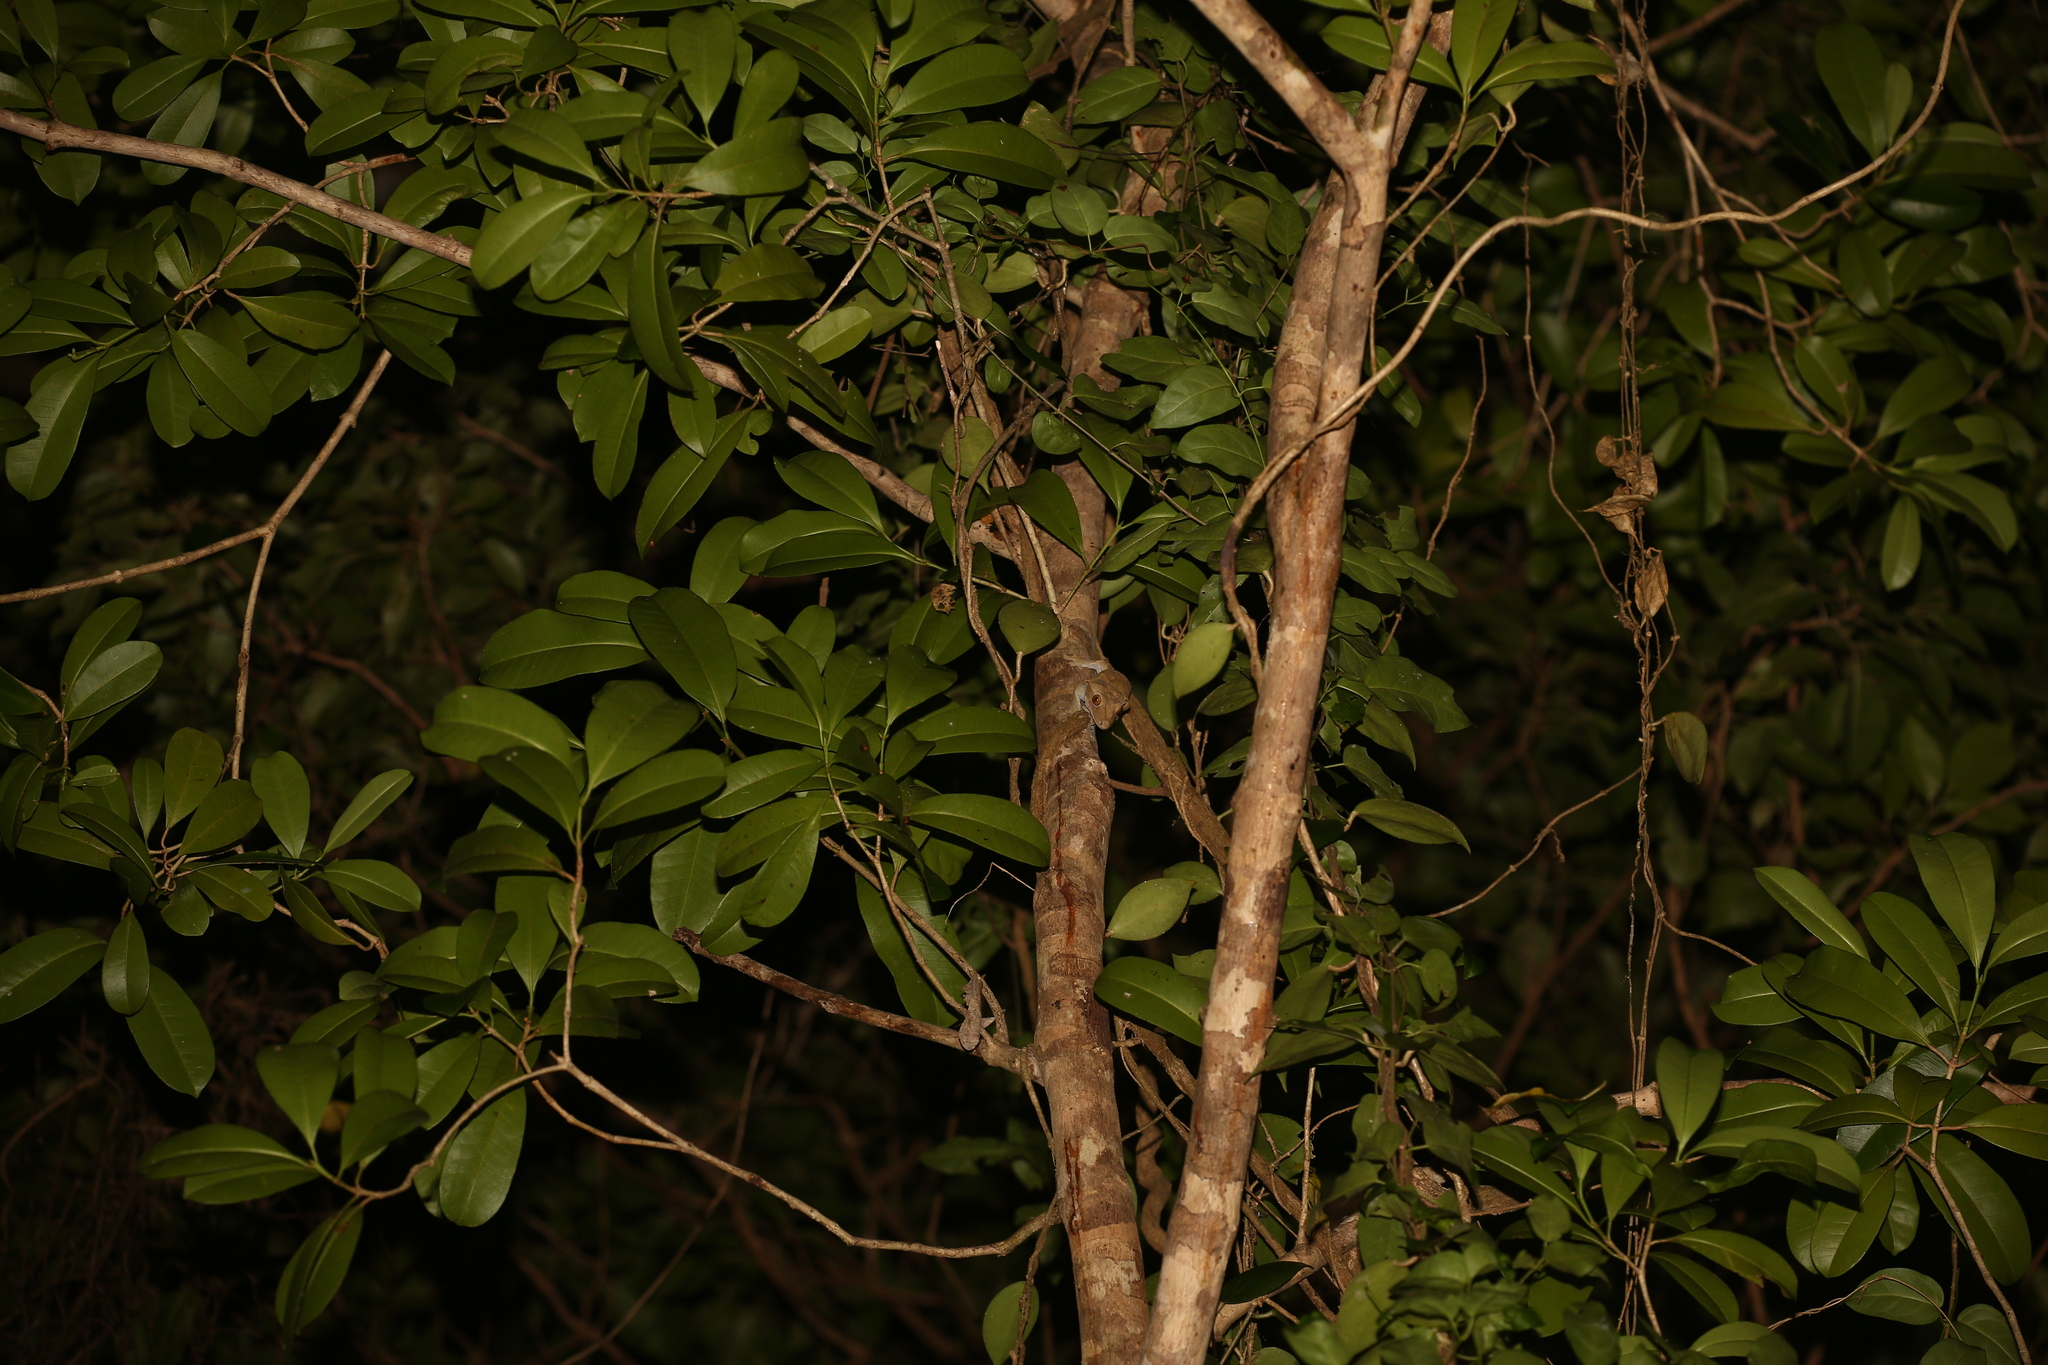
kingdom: Animalia
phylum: Chordata
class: Squamata
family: Diplodactylidae
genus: Correlophus
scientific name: Correlophus ciliatus
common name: Crested gecko
